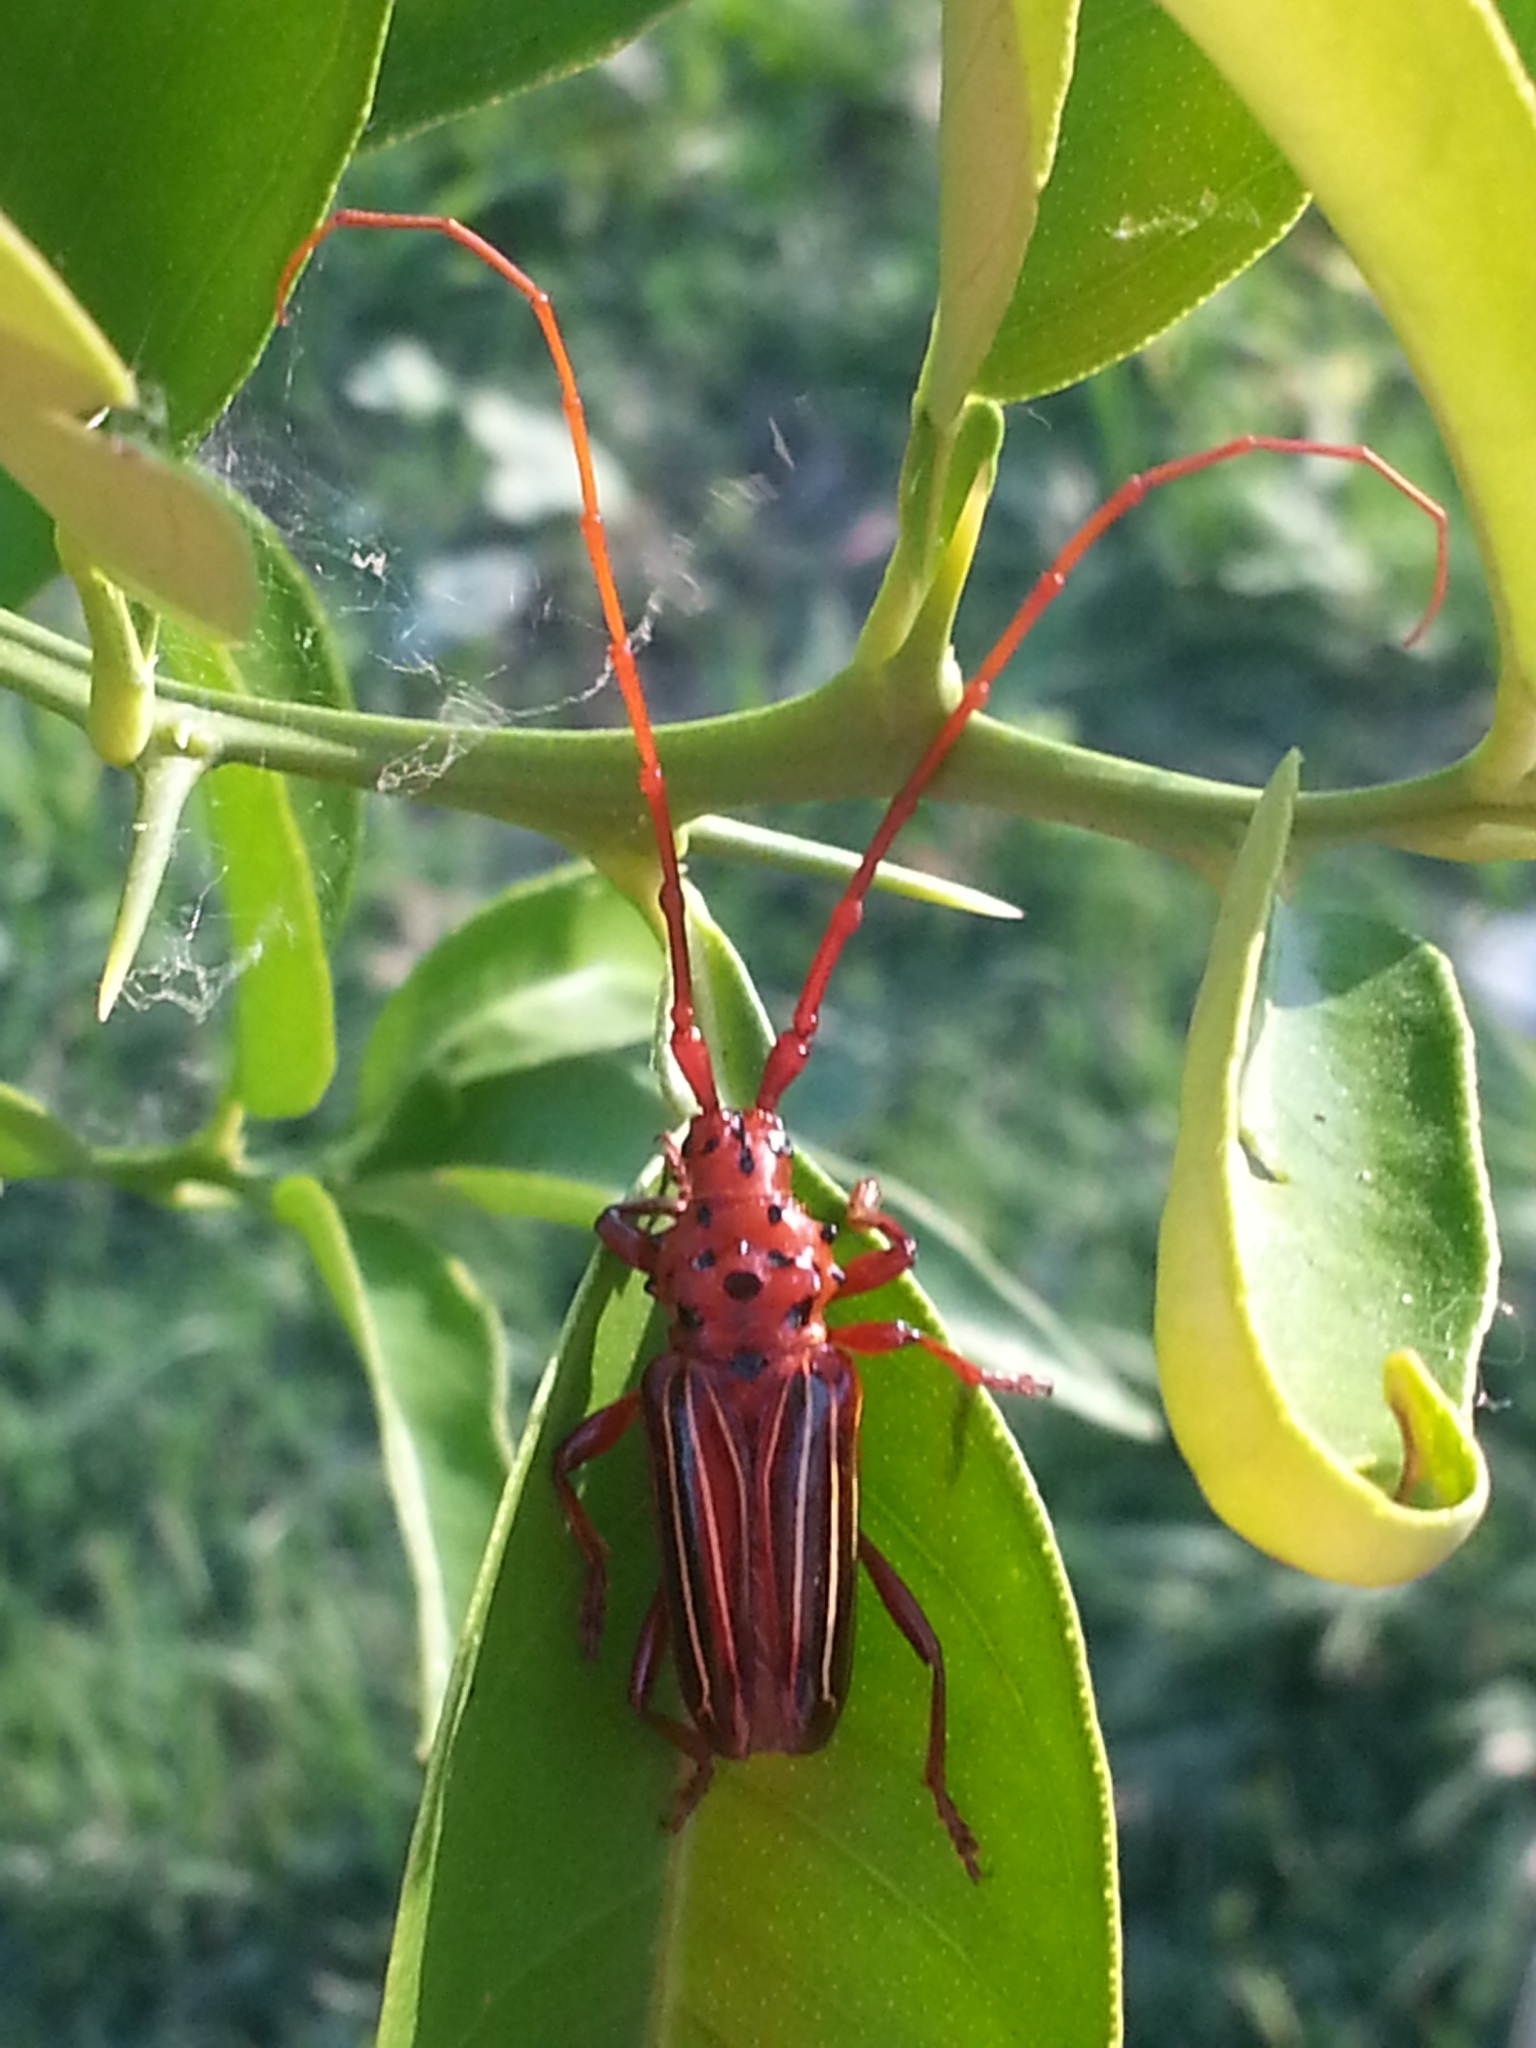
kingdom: Animalia
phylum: Arthropoda
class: Insecta
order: Coleoptera
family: Cerambycidae
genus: Chydarteres
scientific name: Chydarteres striatus
